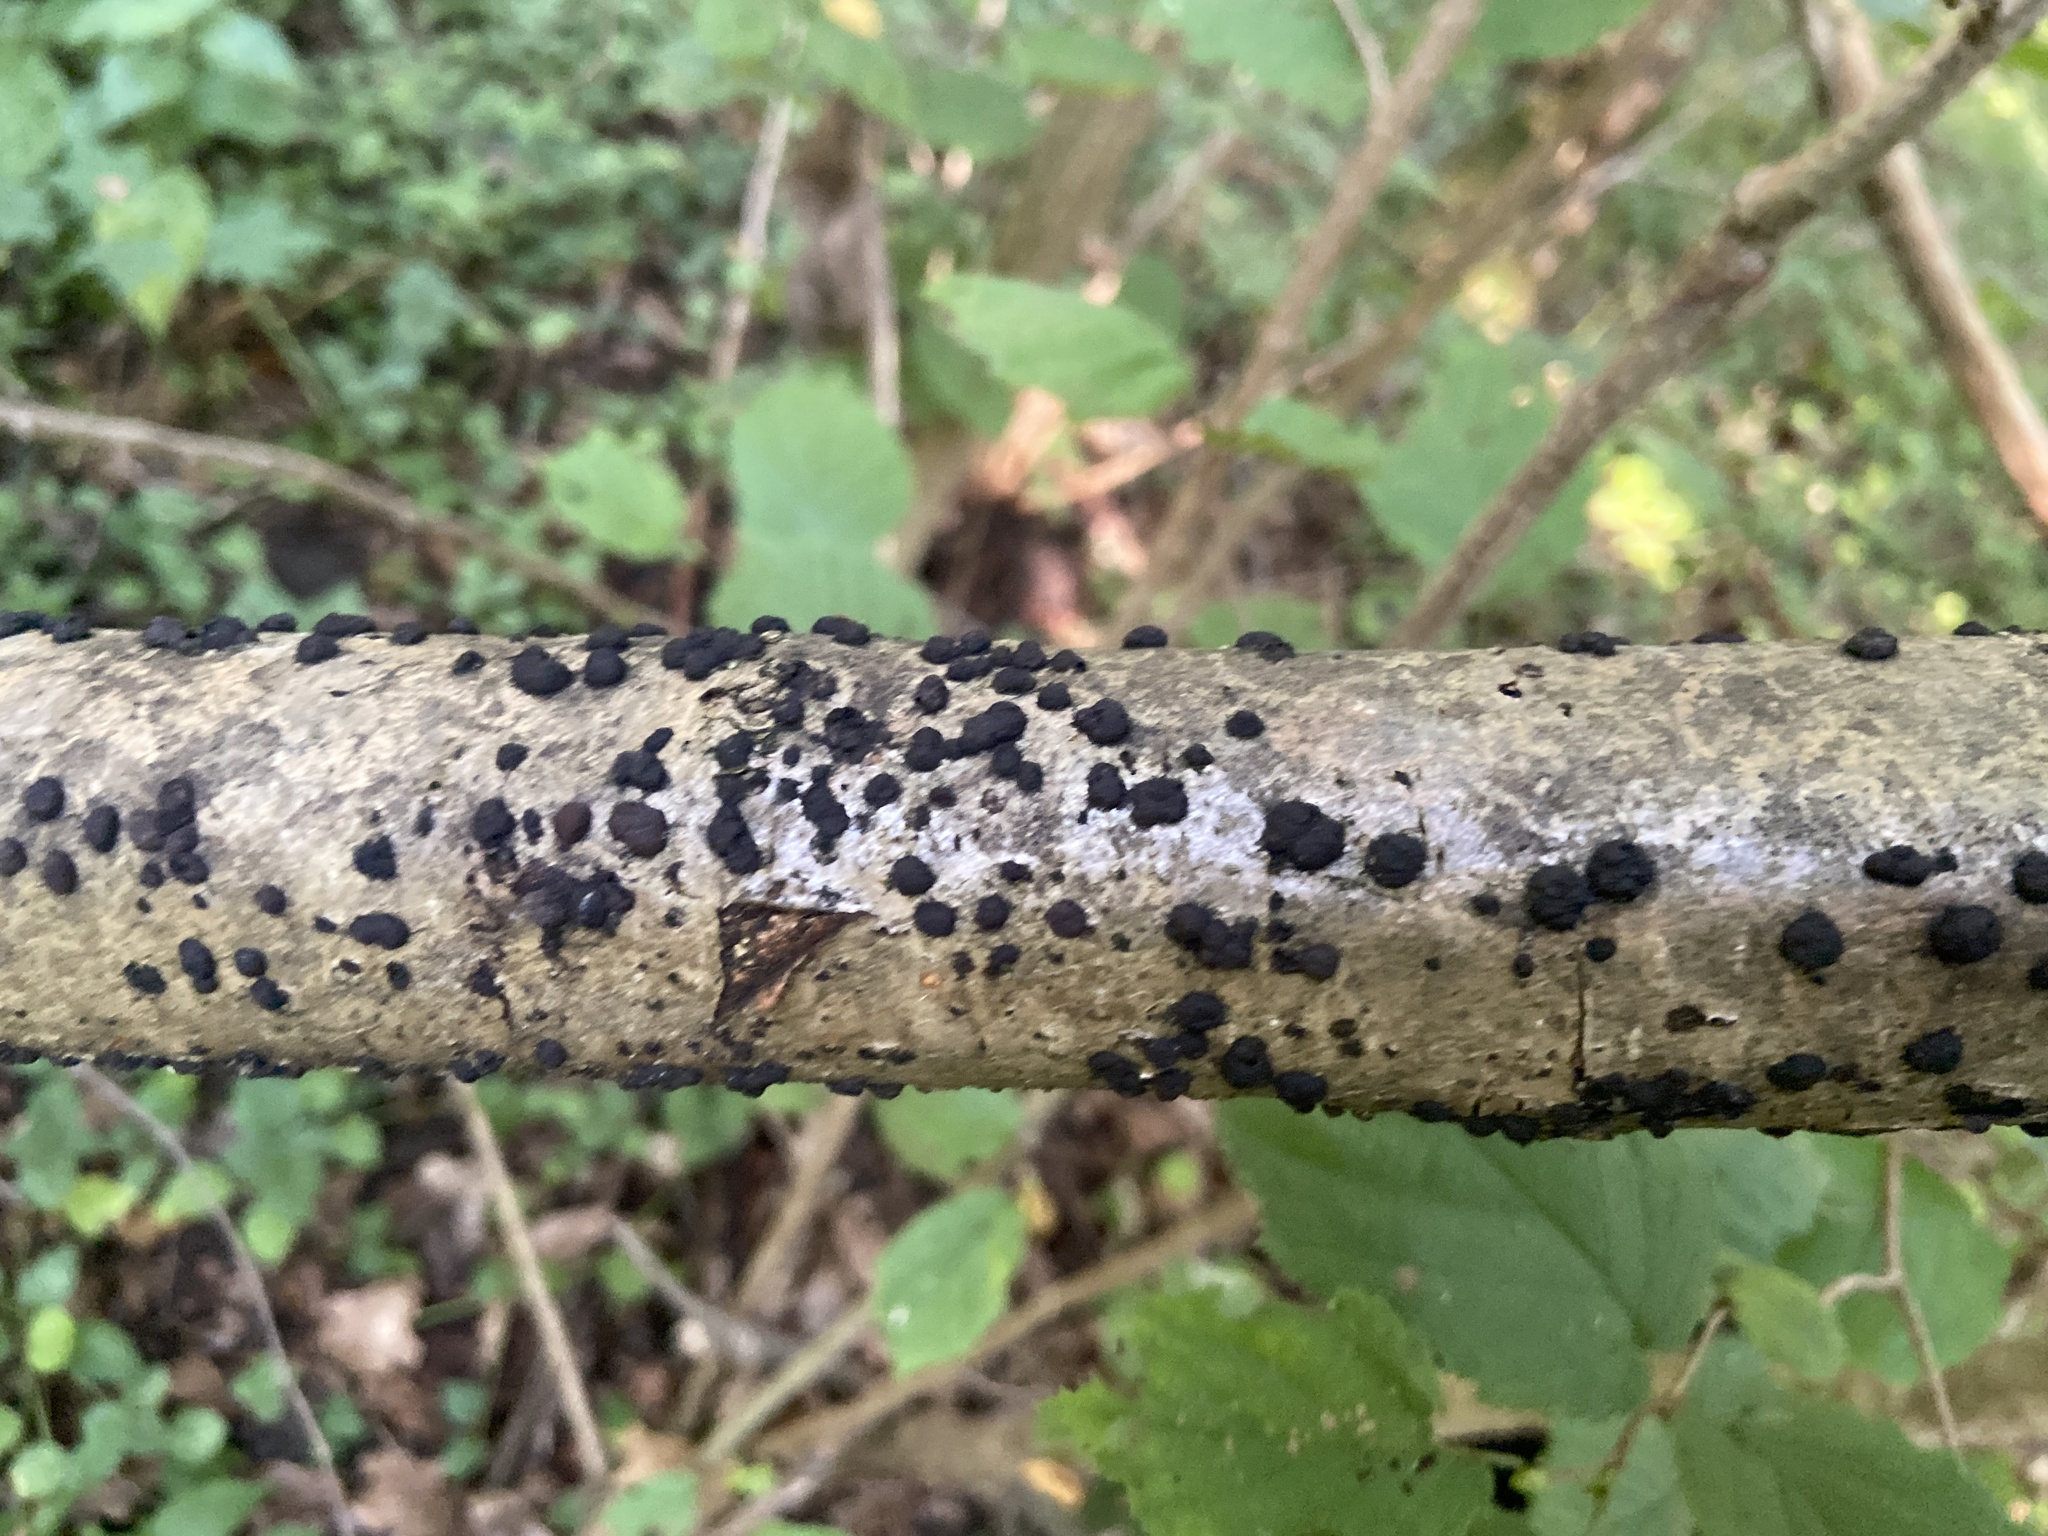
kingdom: Fungi
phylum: Ascomycota
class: Sordariomycetes
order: Xylariales
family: Hypoxylaceae
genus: Hypoxylon
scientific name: Hypoxylon fuscum
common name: Hazel woodwart
